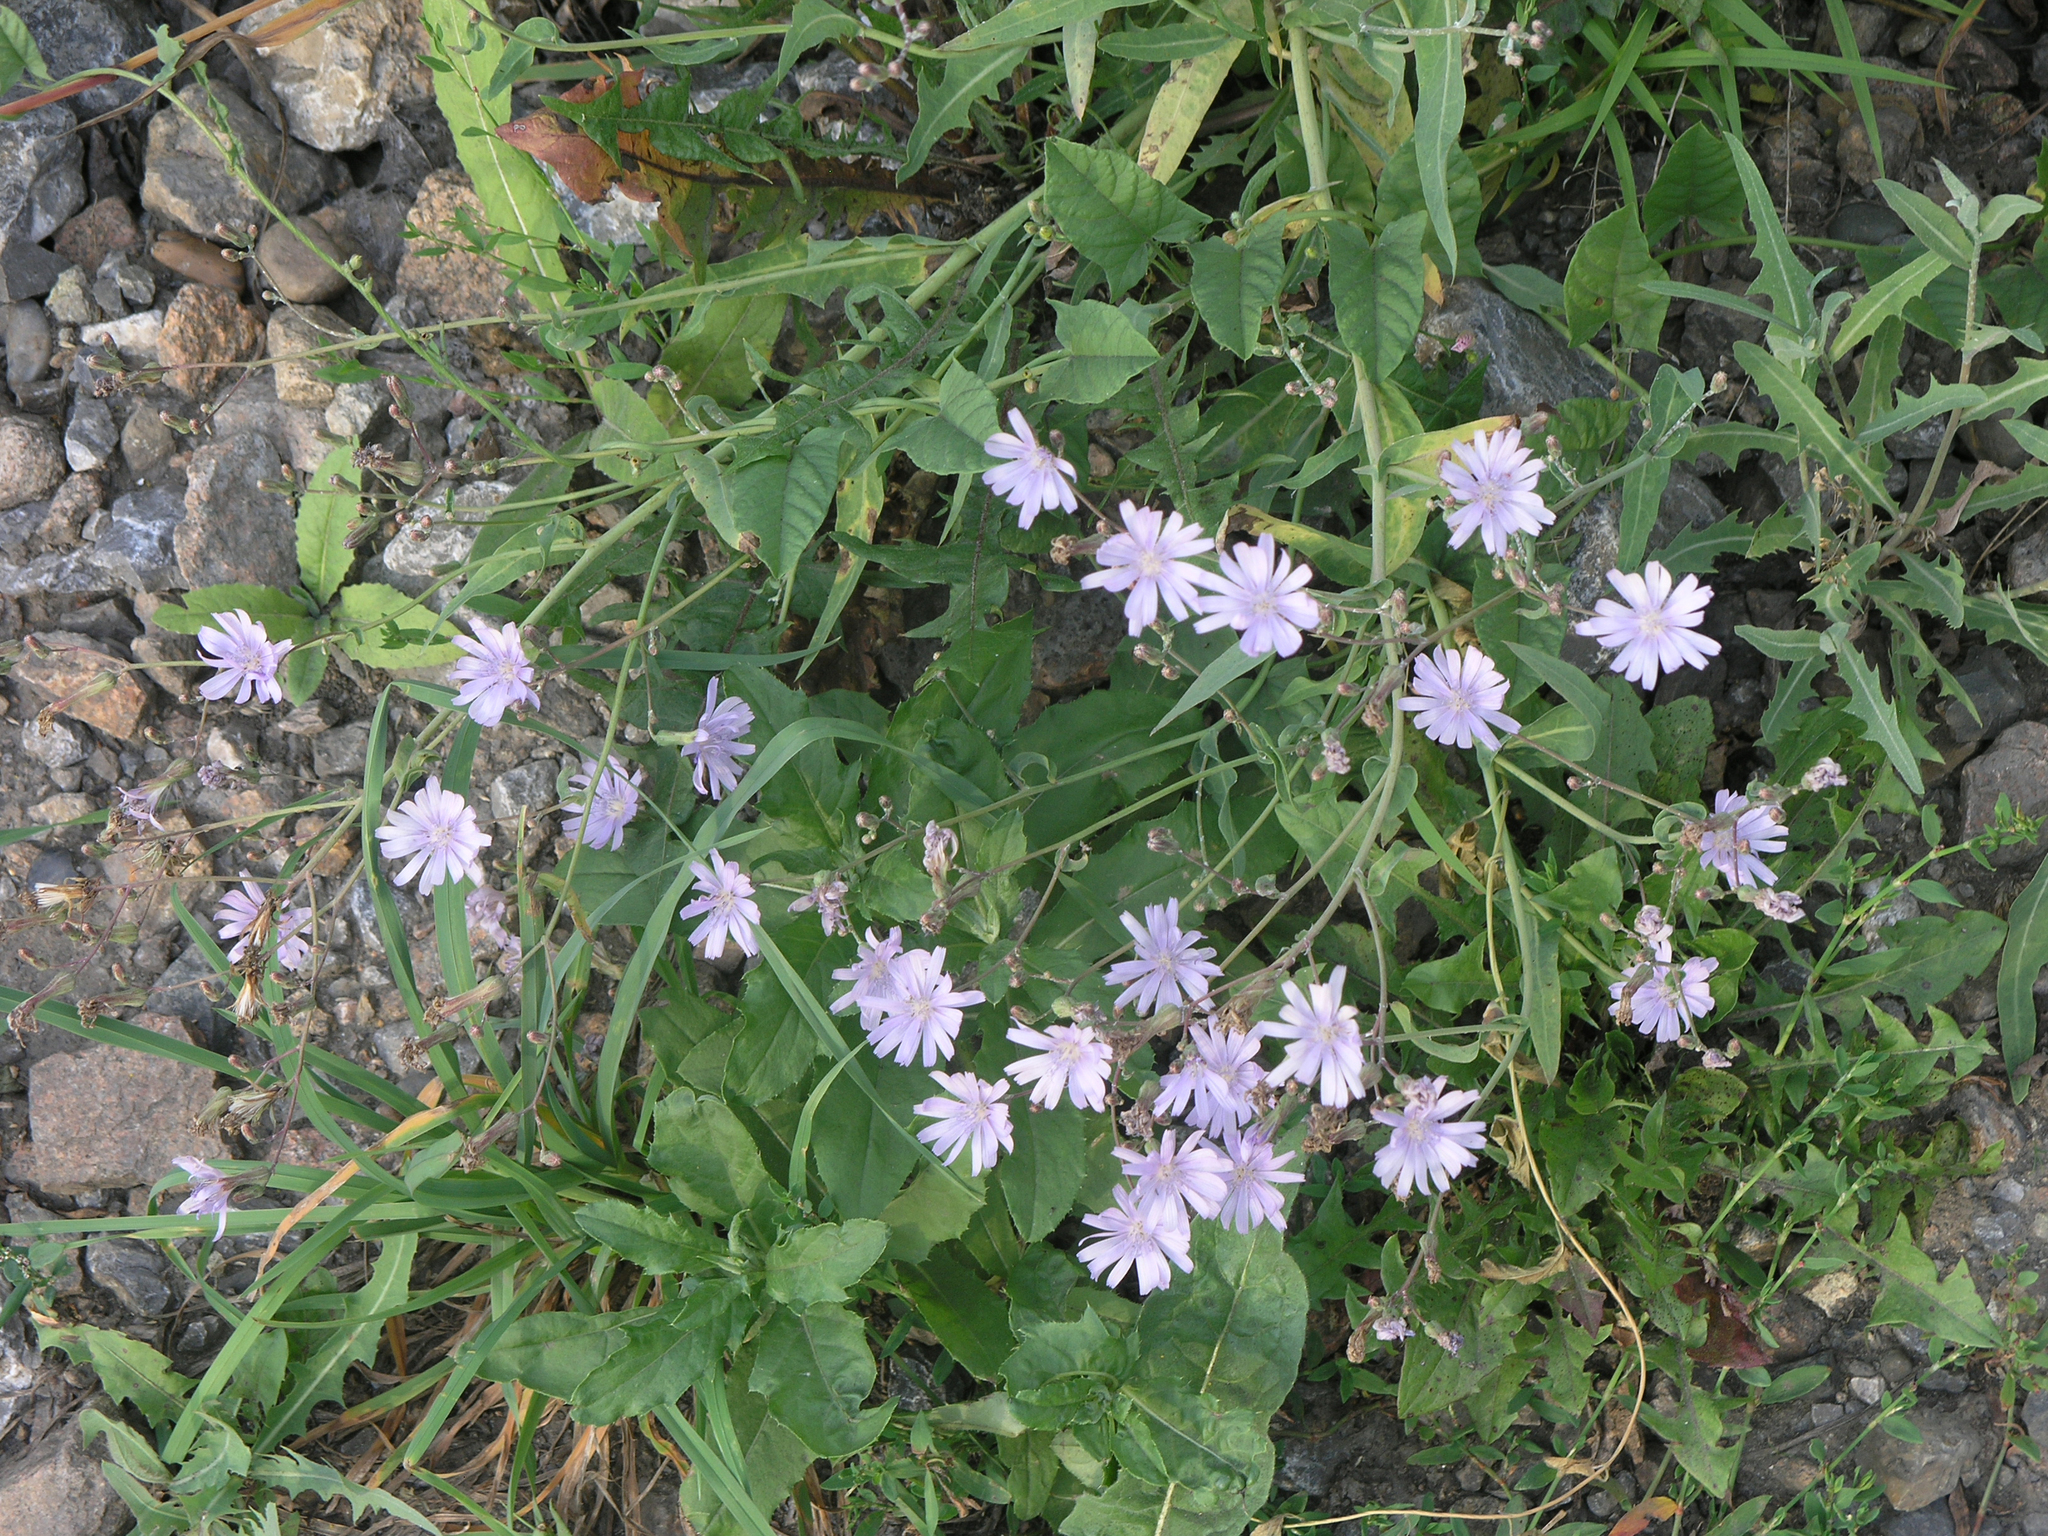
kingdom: Plantae
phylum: Tracheophyta
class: Magnoliopsida
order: Asterales
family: Asteraceae
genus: Lactuca
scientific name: Lactuca tatarica
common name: Blue lettuce
